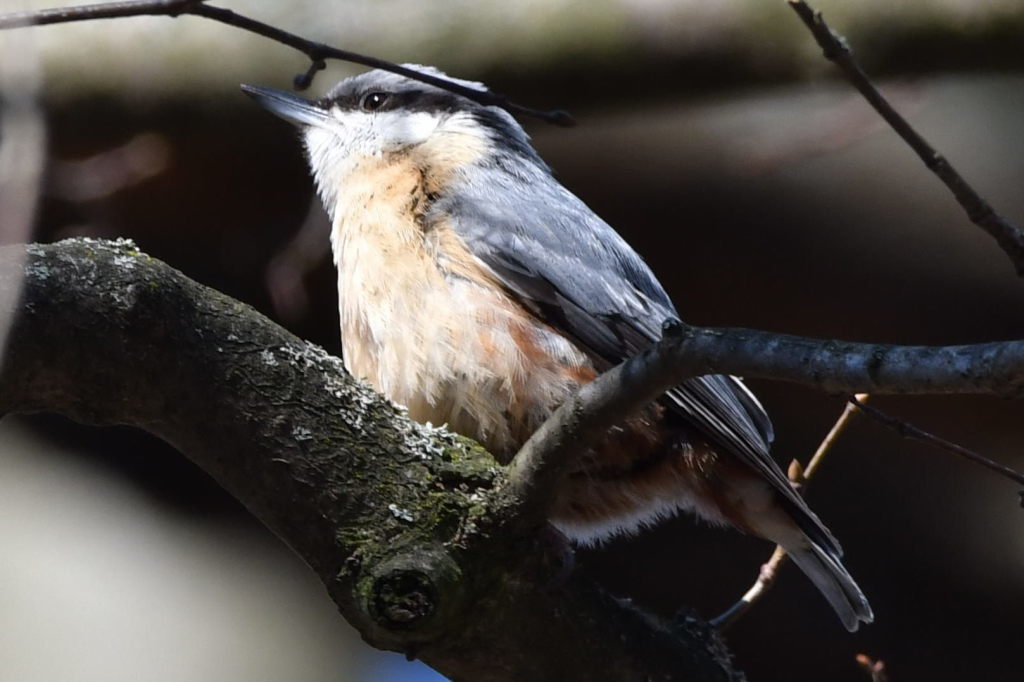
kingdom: Animalia
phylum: Chordata
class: Aves
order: Passeriformes
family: Sittidae
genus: Sitta
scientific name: Sitta europaea
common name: Eurasian nuthatch
